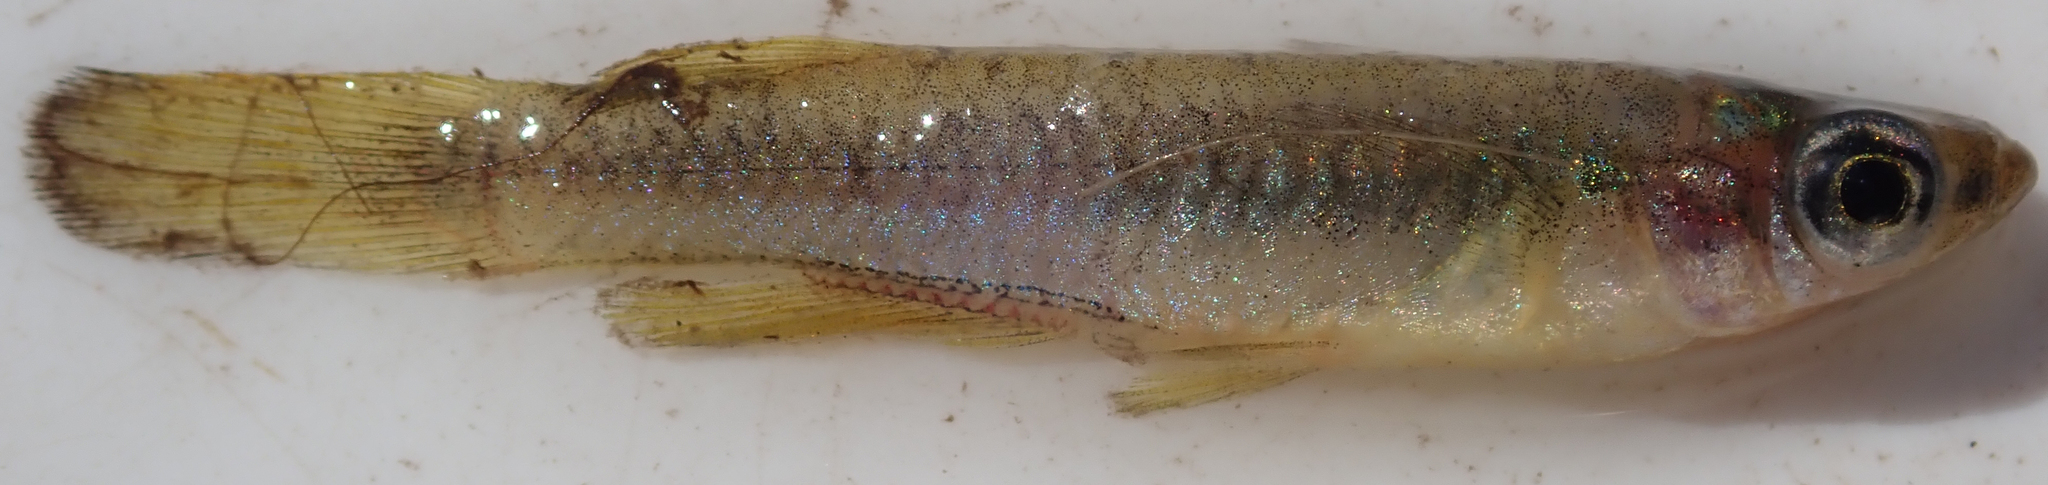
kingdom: Animalia
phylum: Chordata
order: Cyprinodontiformes
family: Poeciliidae
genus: Micropanchax
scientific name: Micropanchax johnstoni
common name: Johnston's topminnow
